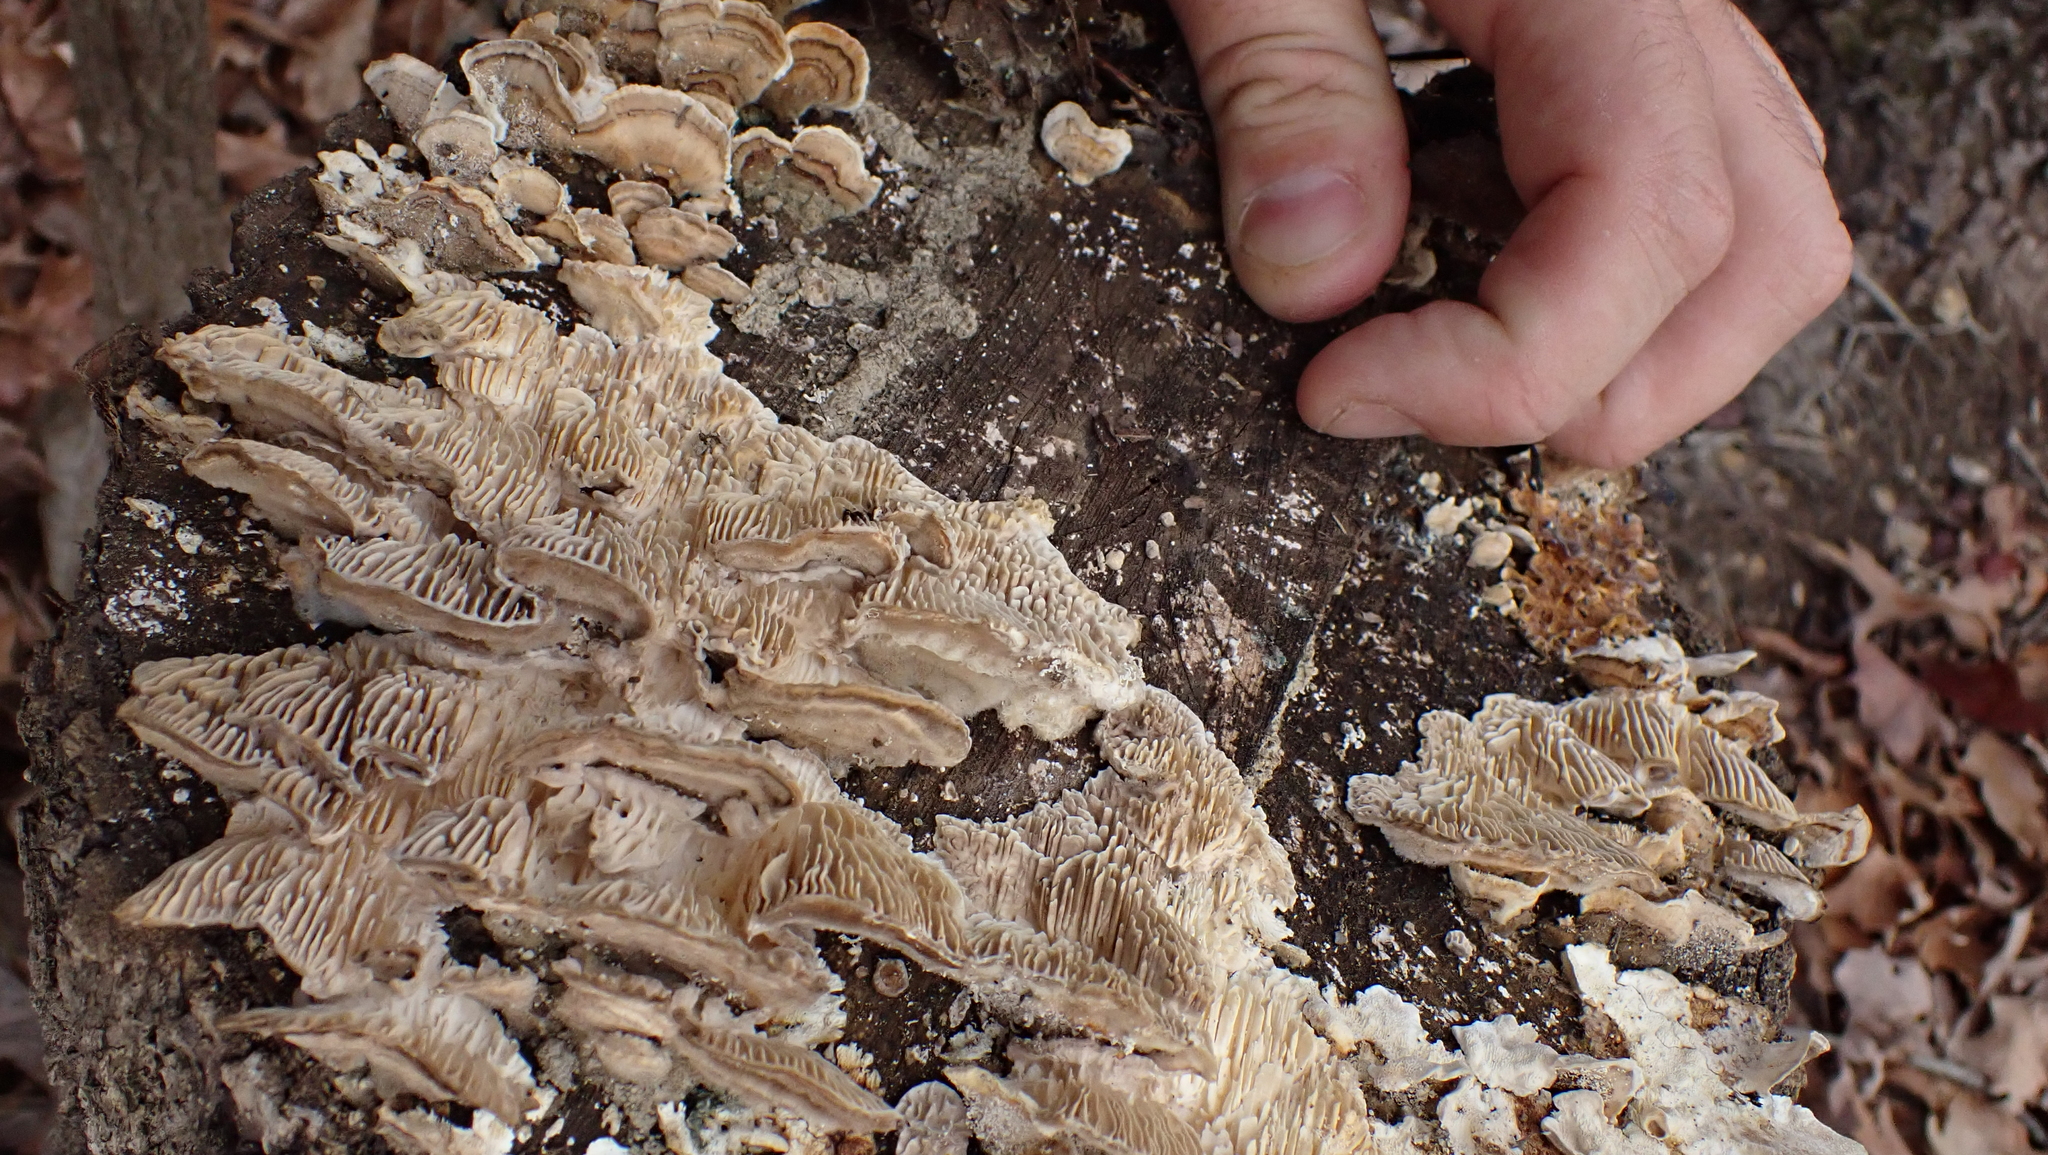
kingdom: Fungi
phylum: Basidiomycota
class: Agaricomycetes
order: Polyporales
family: Polyporaceae
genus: Lenzites
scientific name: Lenzites betulinus
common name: Birch mazegill
